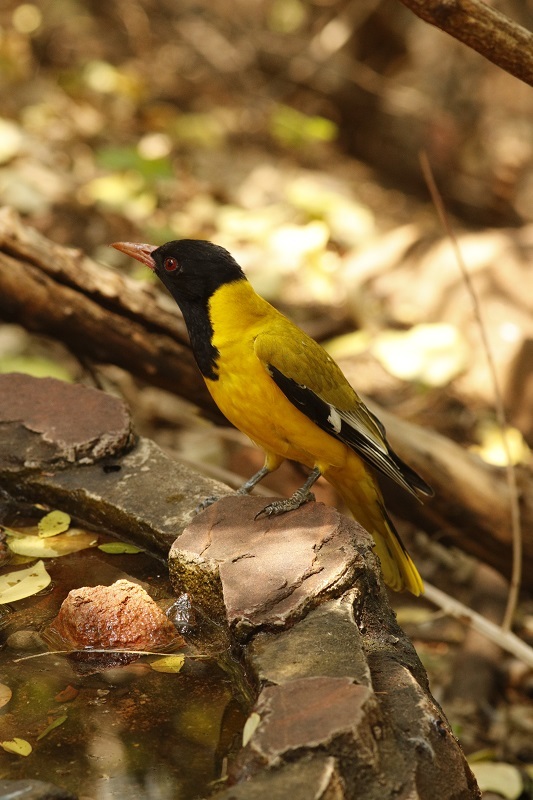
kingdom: Animalia
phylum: Chordata
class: Aves
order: Passeriformes
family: Oriolidae
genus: Oriolus
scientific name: Oriolus larvatus
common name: Black-headed oriole
